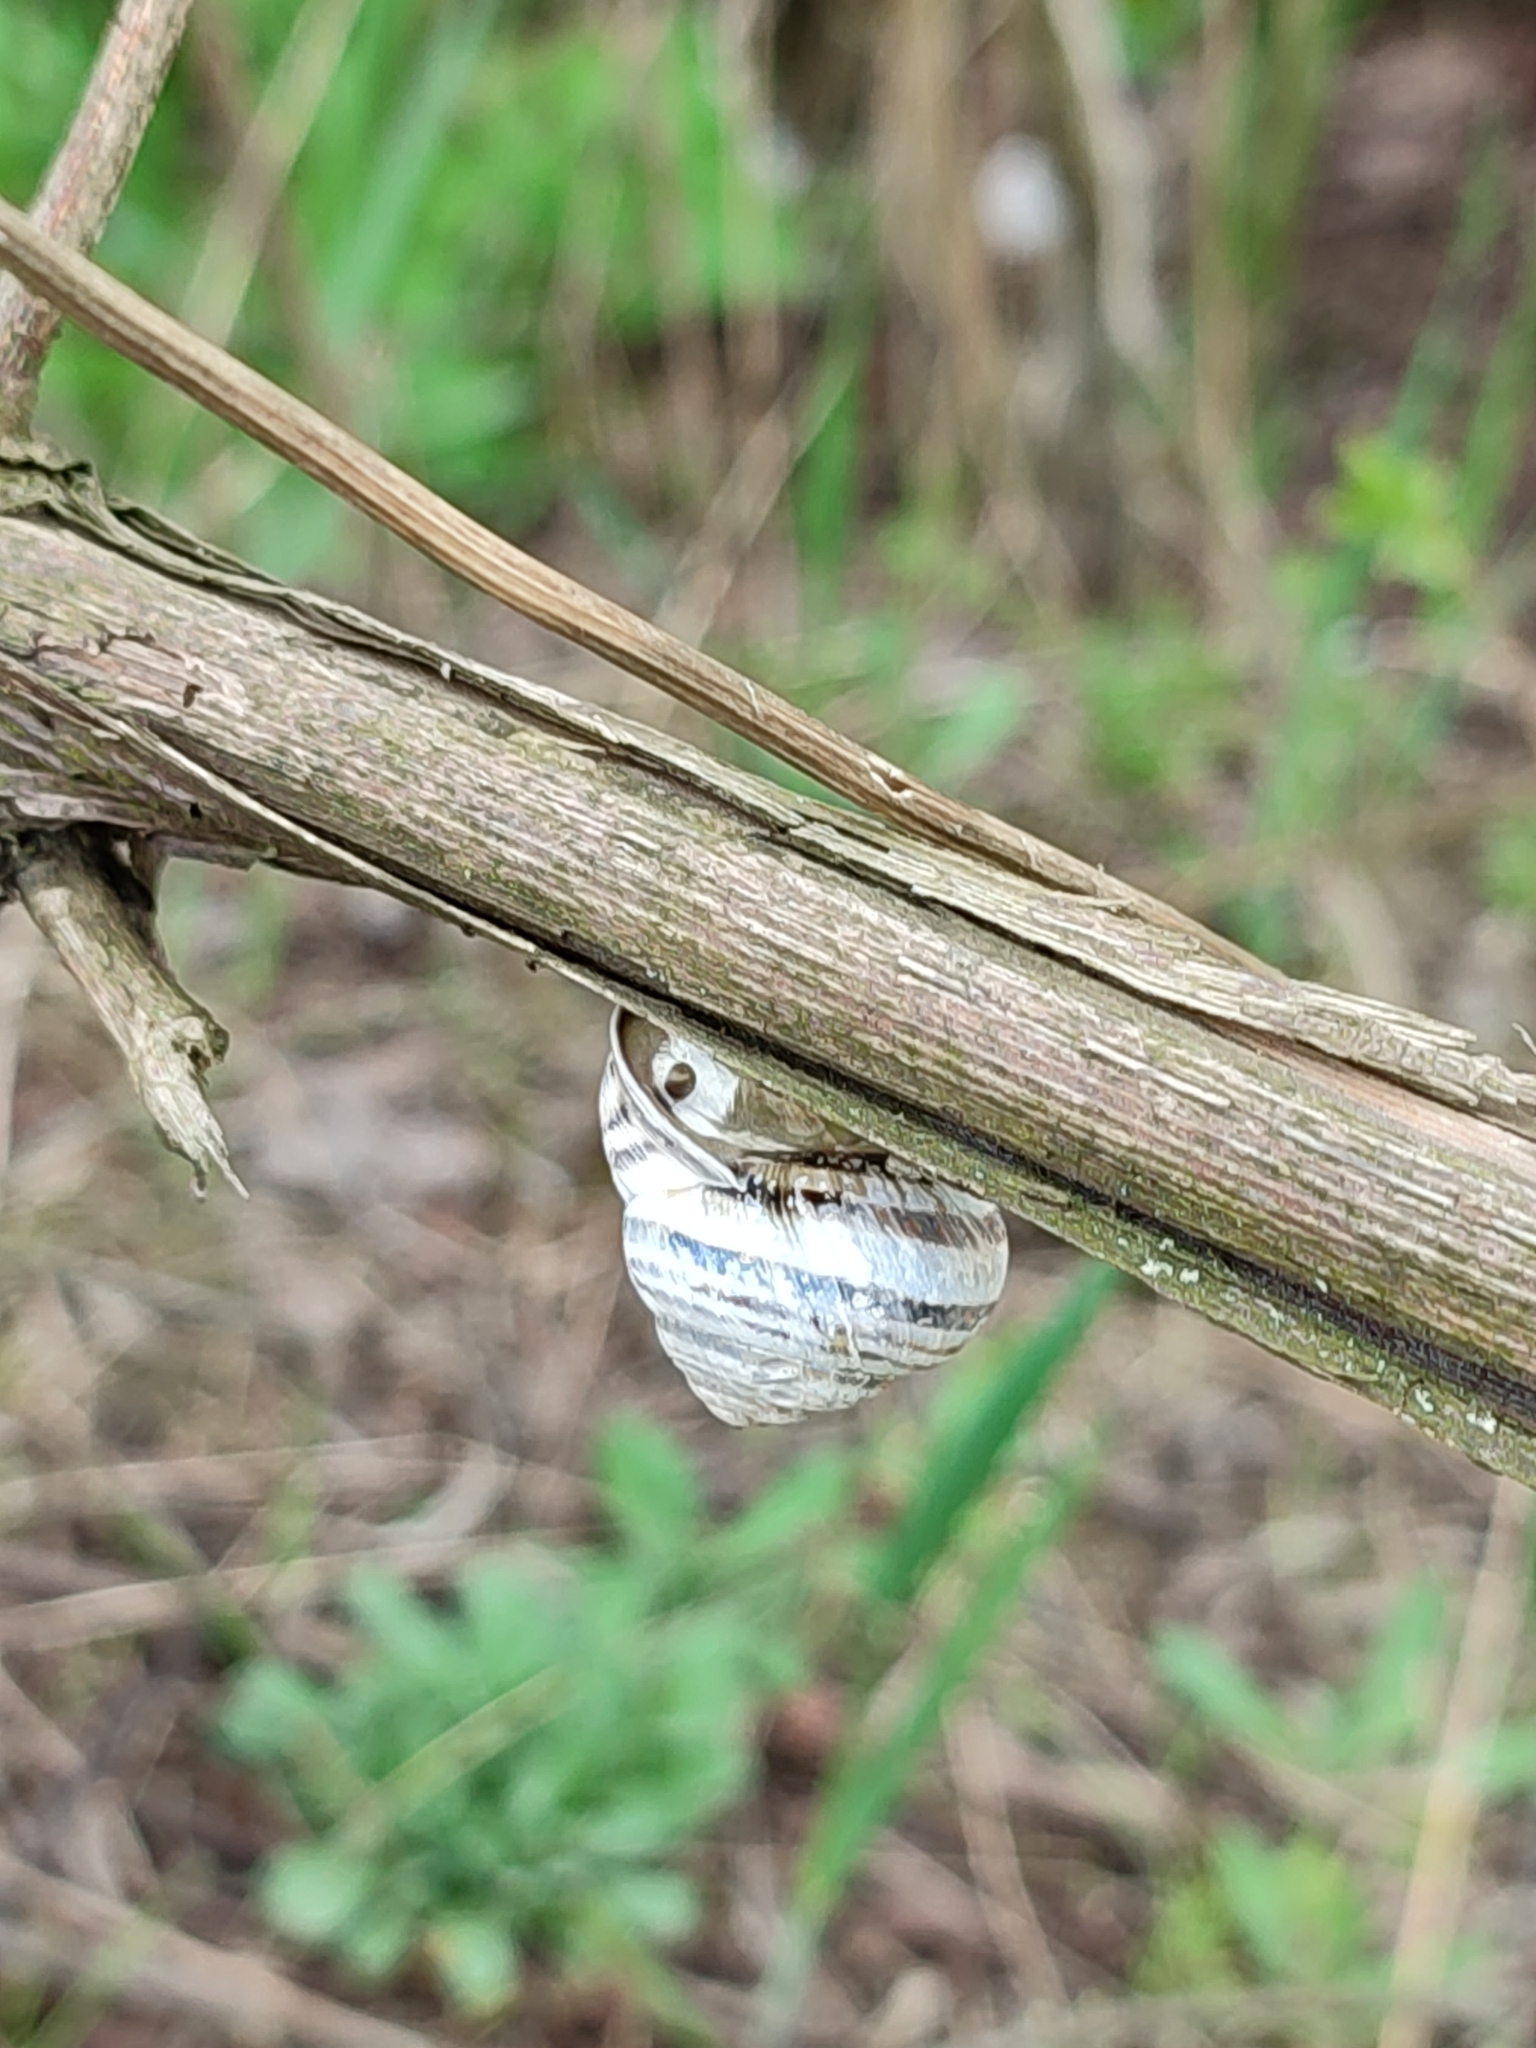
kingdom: Animalia
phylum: Mollusca
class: Gastropoda
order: Stylommatophora
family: Helicidae
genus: Caucasotachea
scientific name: Caucasotachea vindobonensis
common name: European helicid land snail
